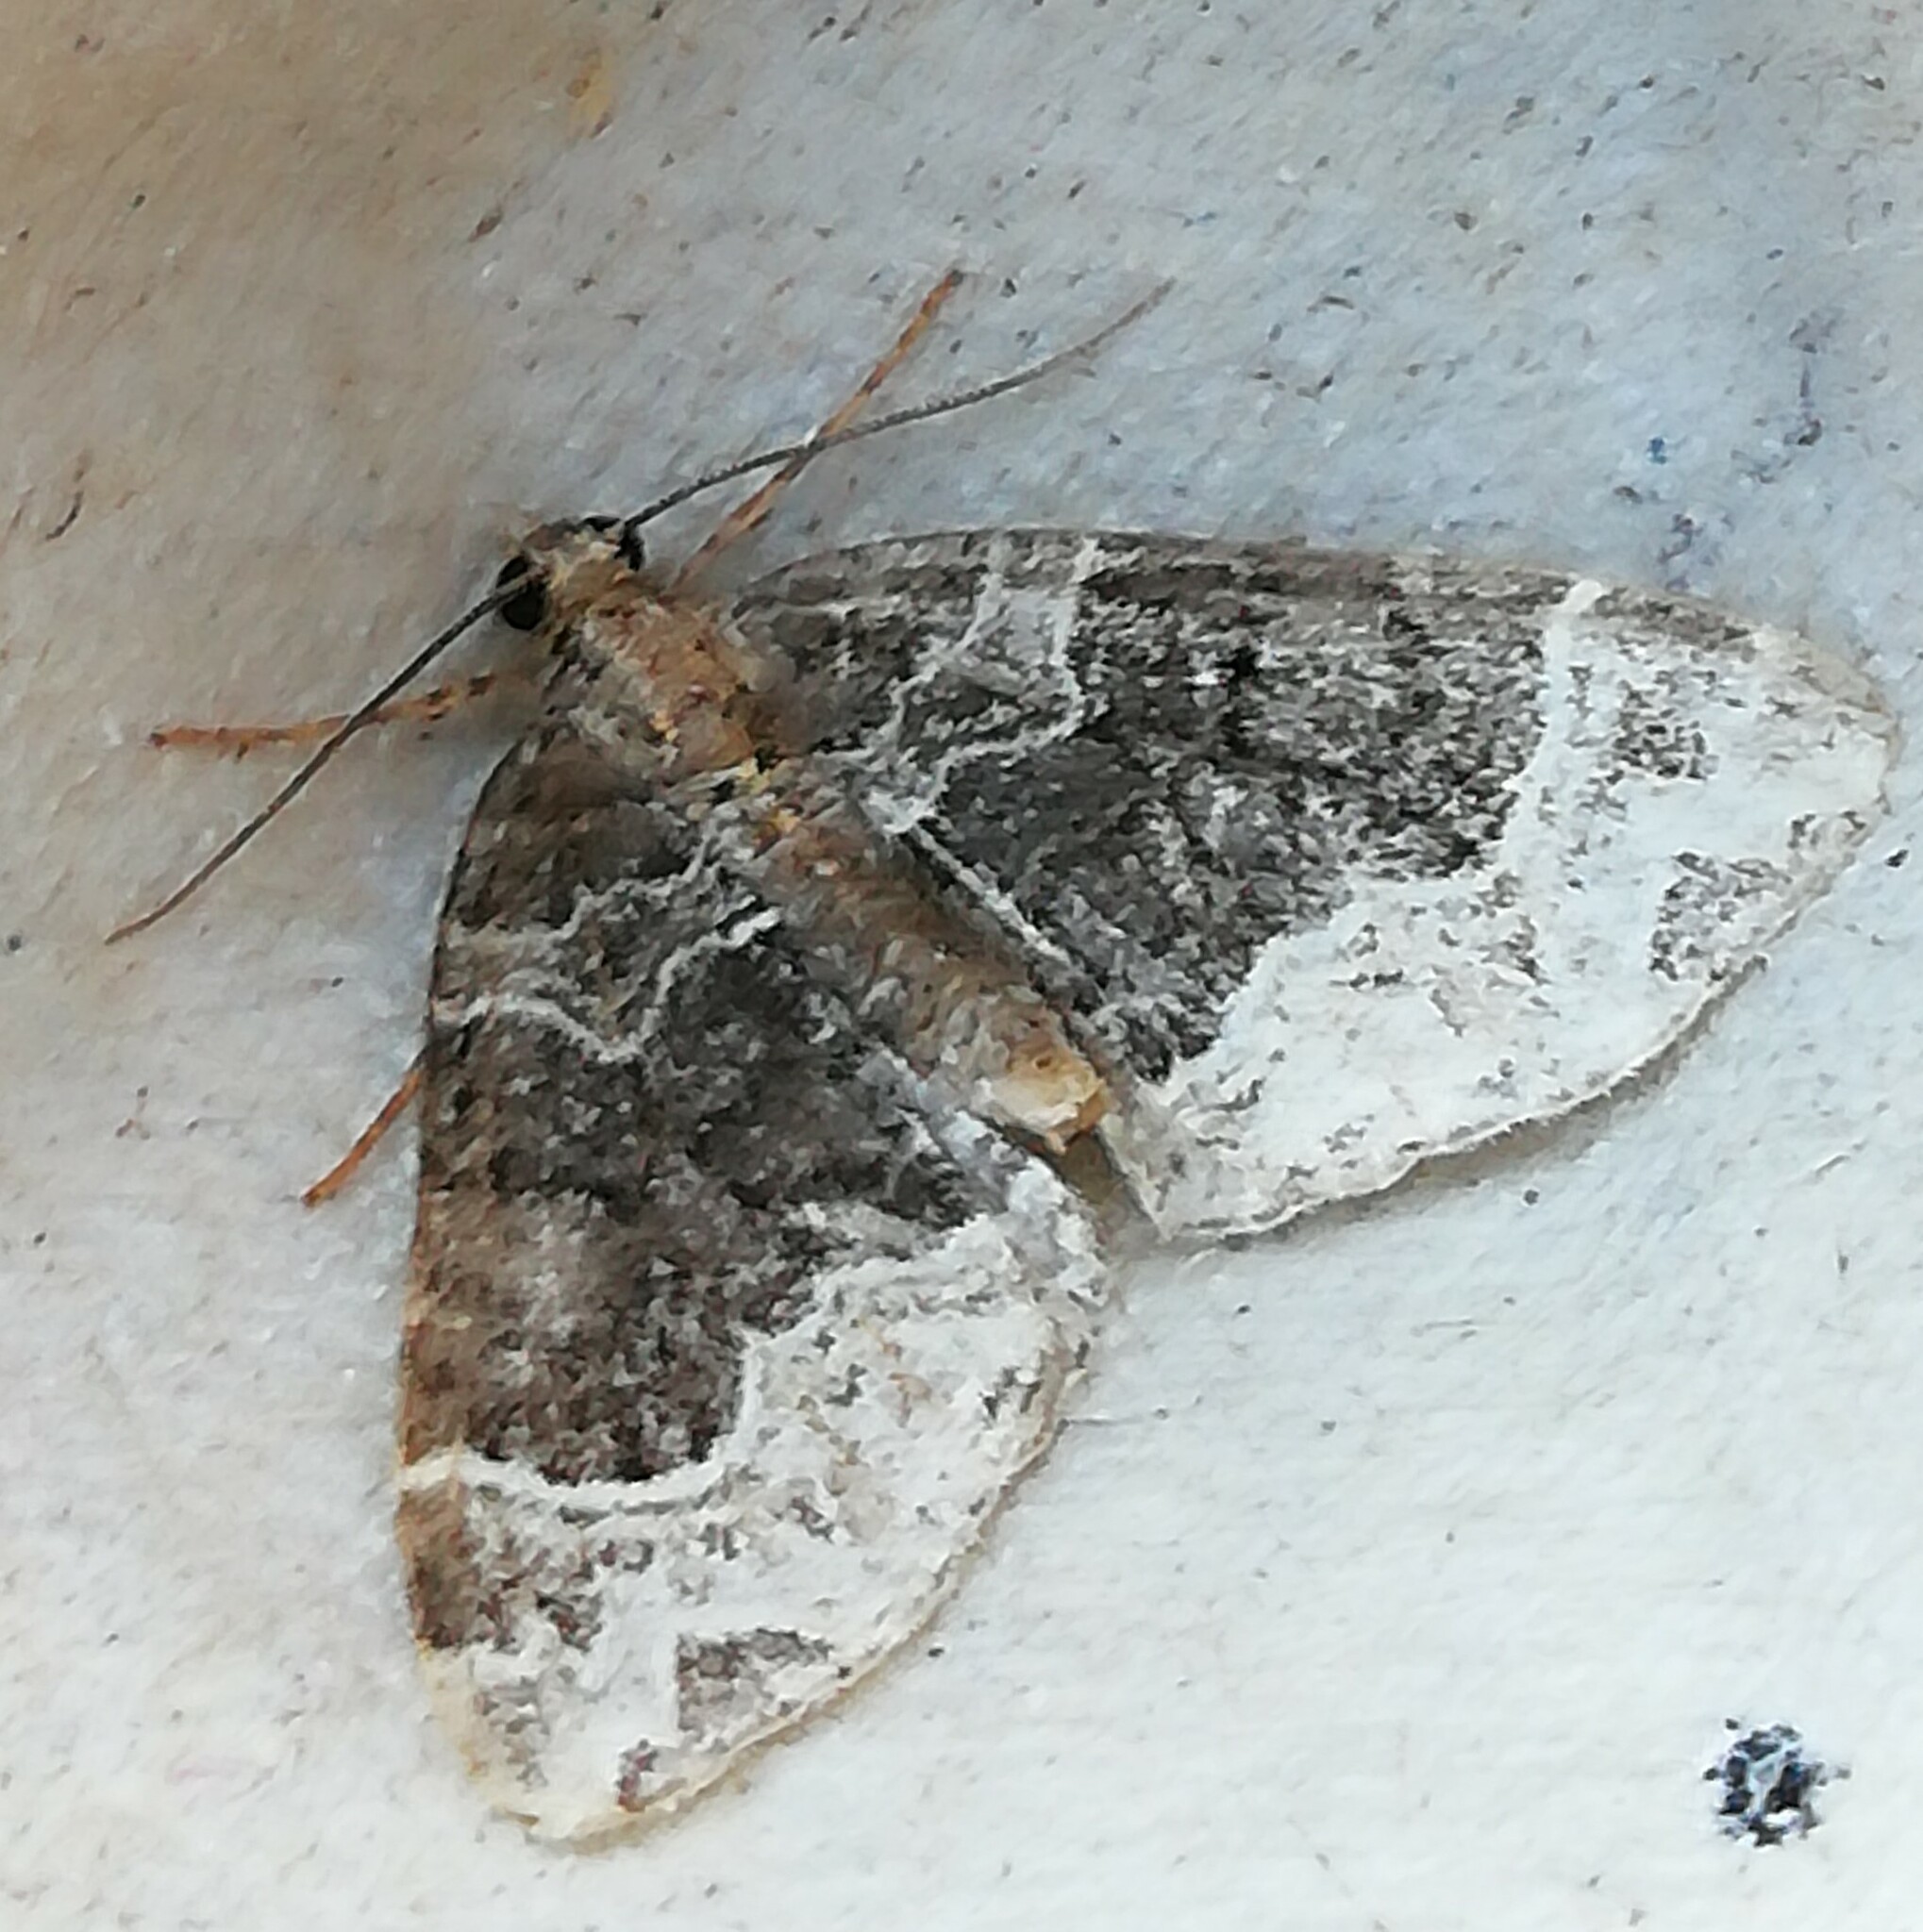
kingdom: Animalia
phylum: Arthropoda
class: Insecta
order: Lepidoptera
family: Geometridae
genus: Ecliptopera
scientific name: Ecliptopera silaceata
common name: Small phoenix
